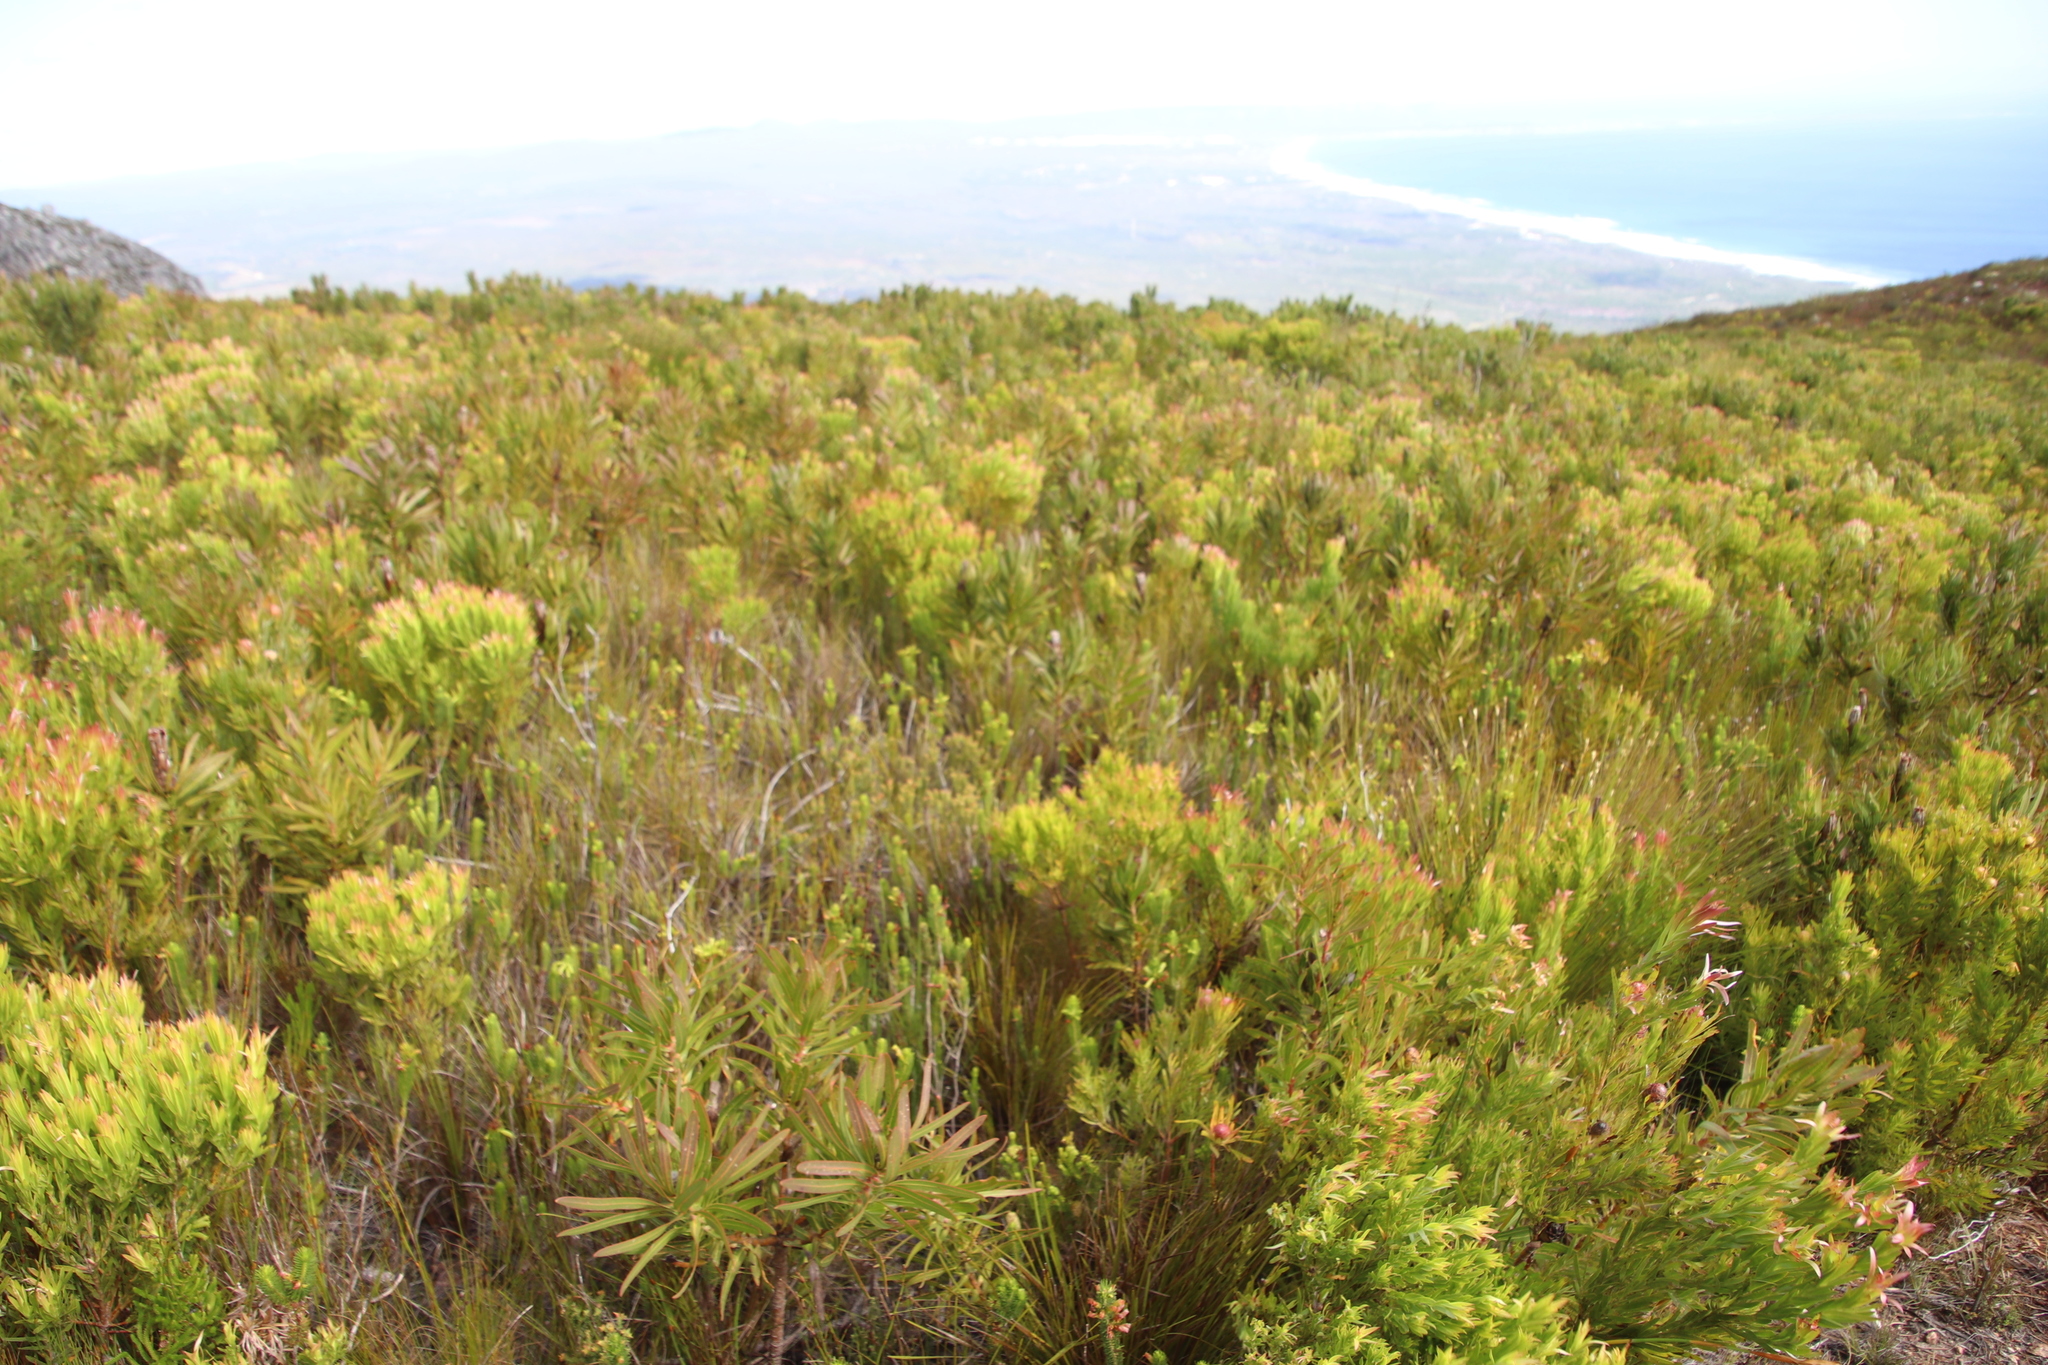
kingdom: Plantae
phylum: Tracheophyta
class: Magnoliopsida
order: Ericales
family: Ericaceae
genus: Erica
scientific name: Erica viscaria
